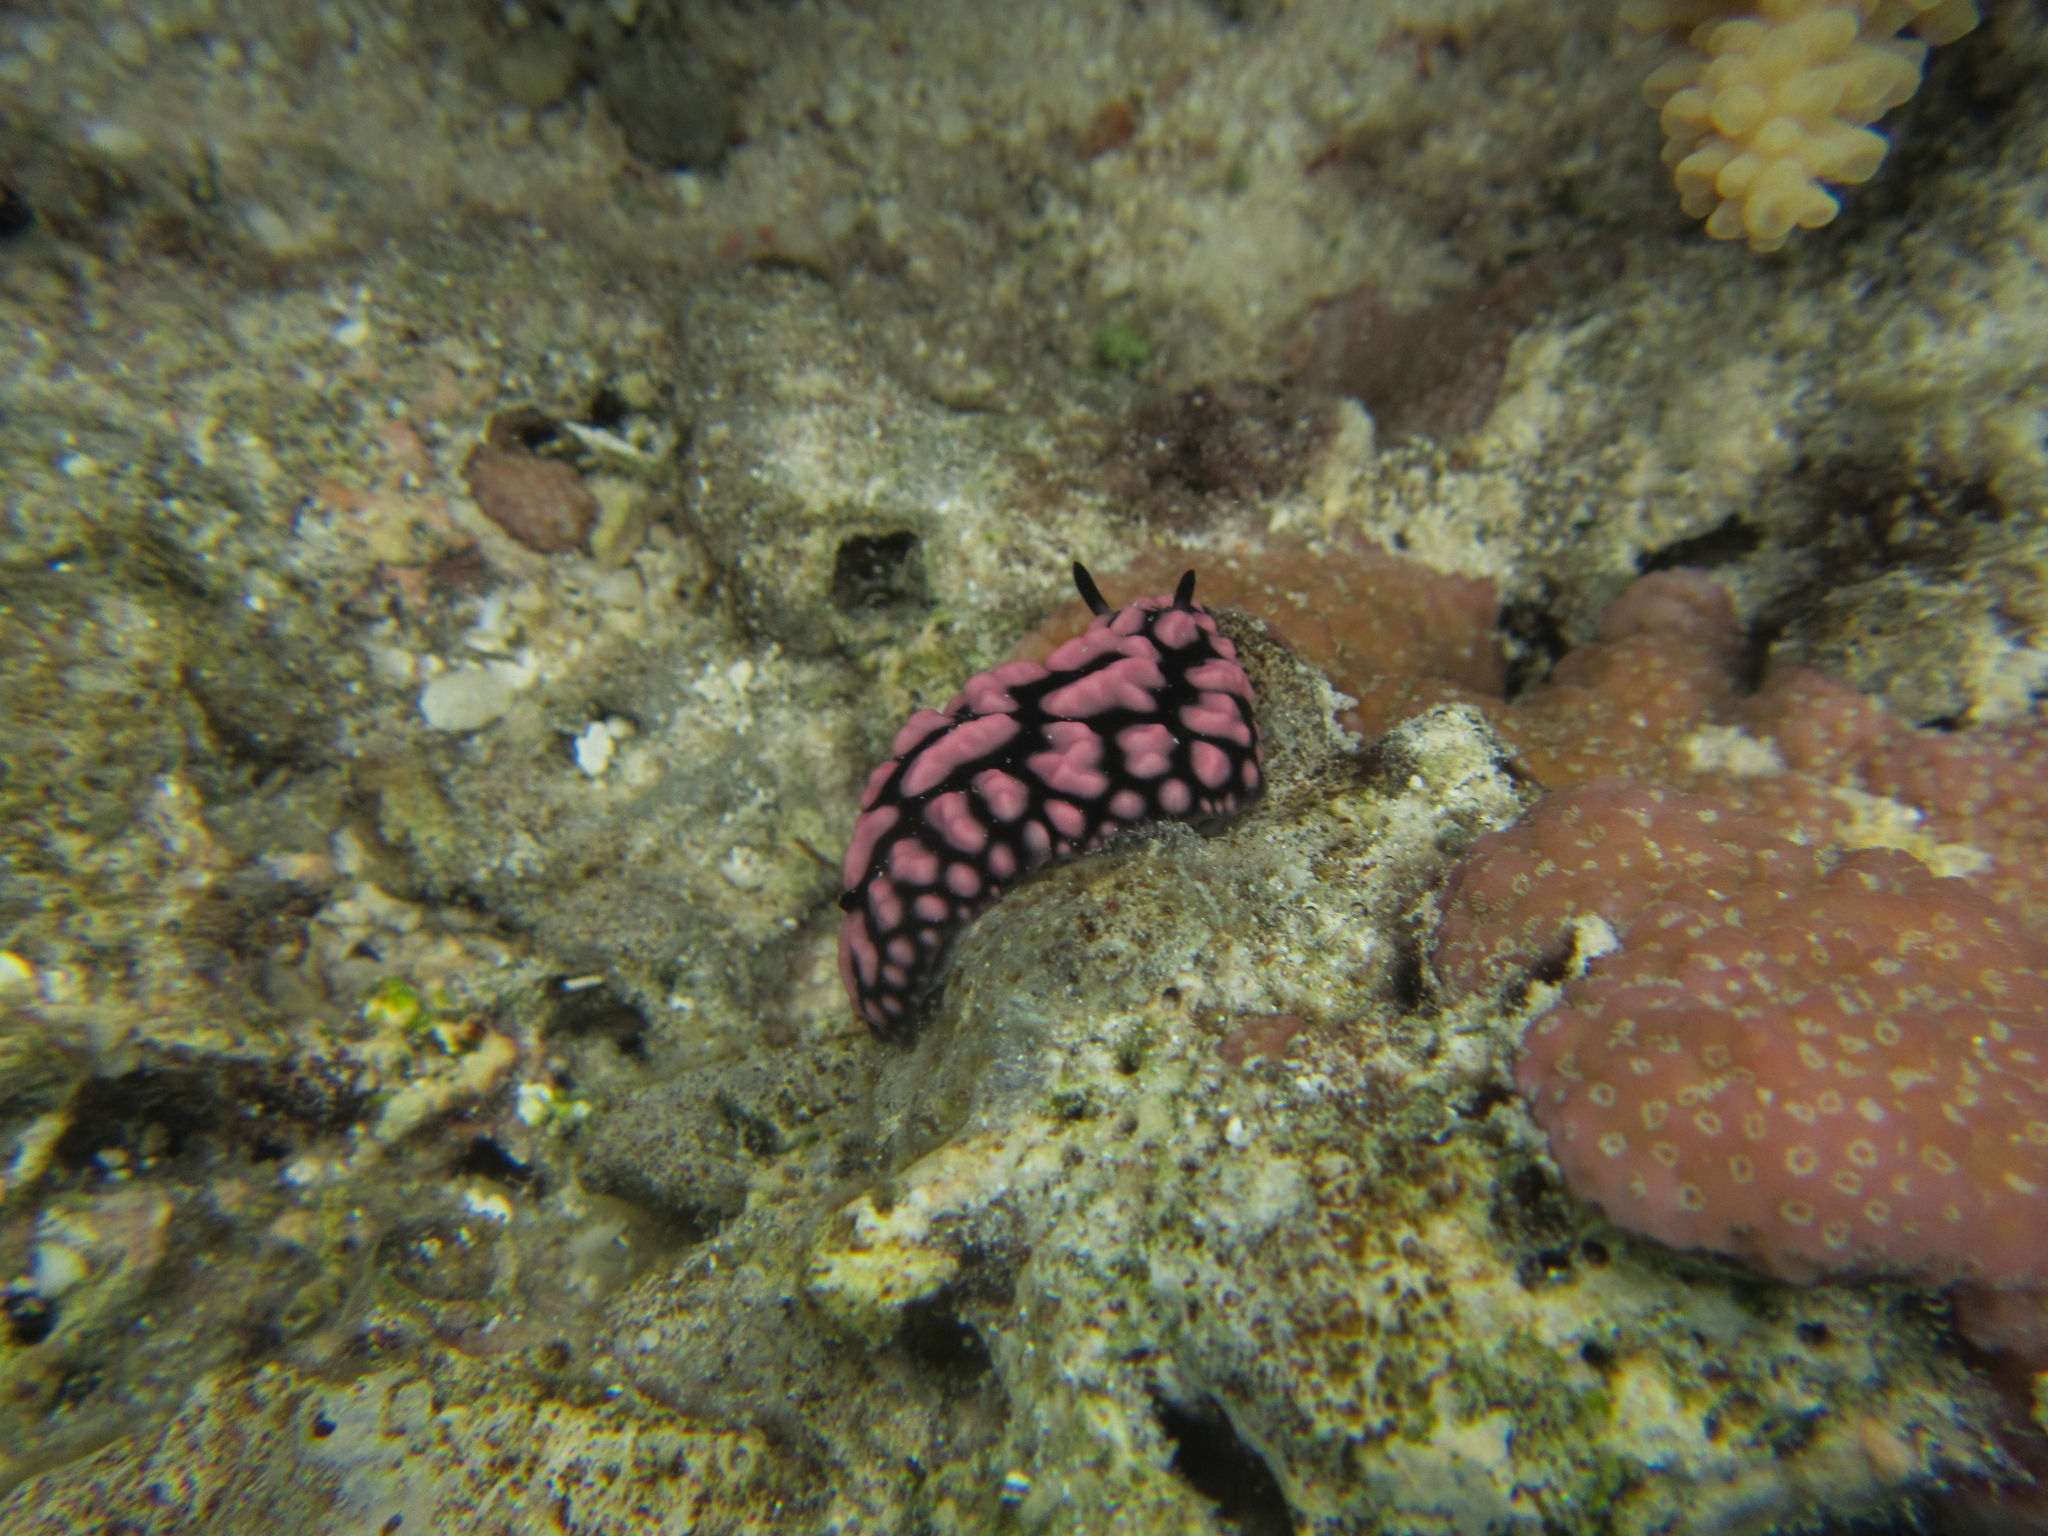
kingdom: Animalia
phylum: Mollusca
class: Gastropoda
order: Nudibranchia
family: Phyllidiidae
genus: Phyllidiella
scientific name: Phyllidiella pustulosa
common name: Pustular phyllidia
